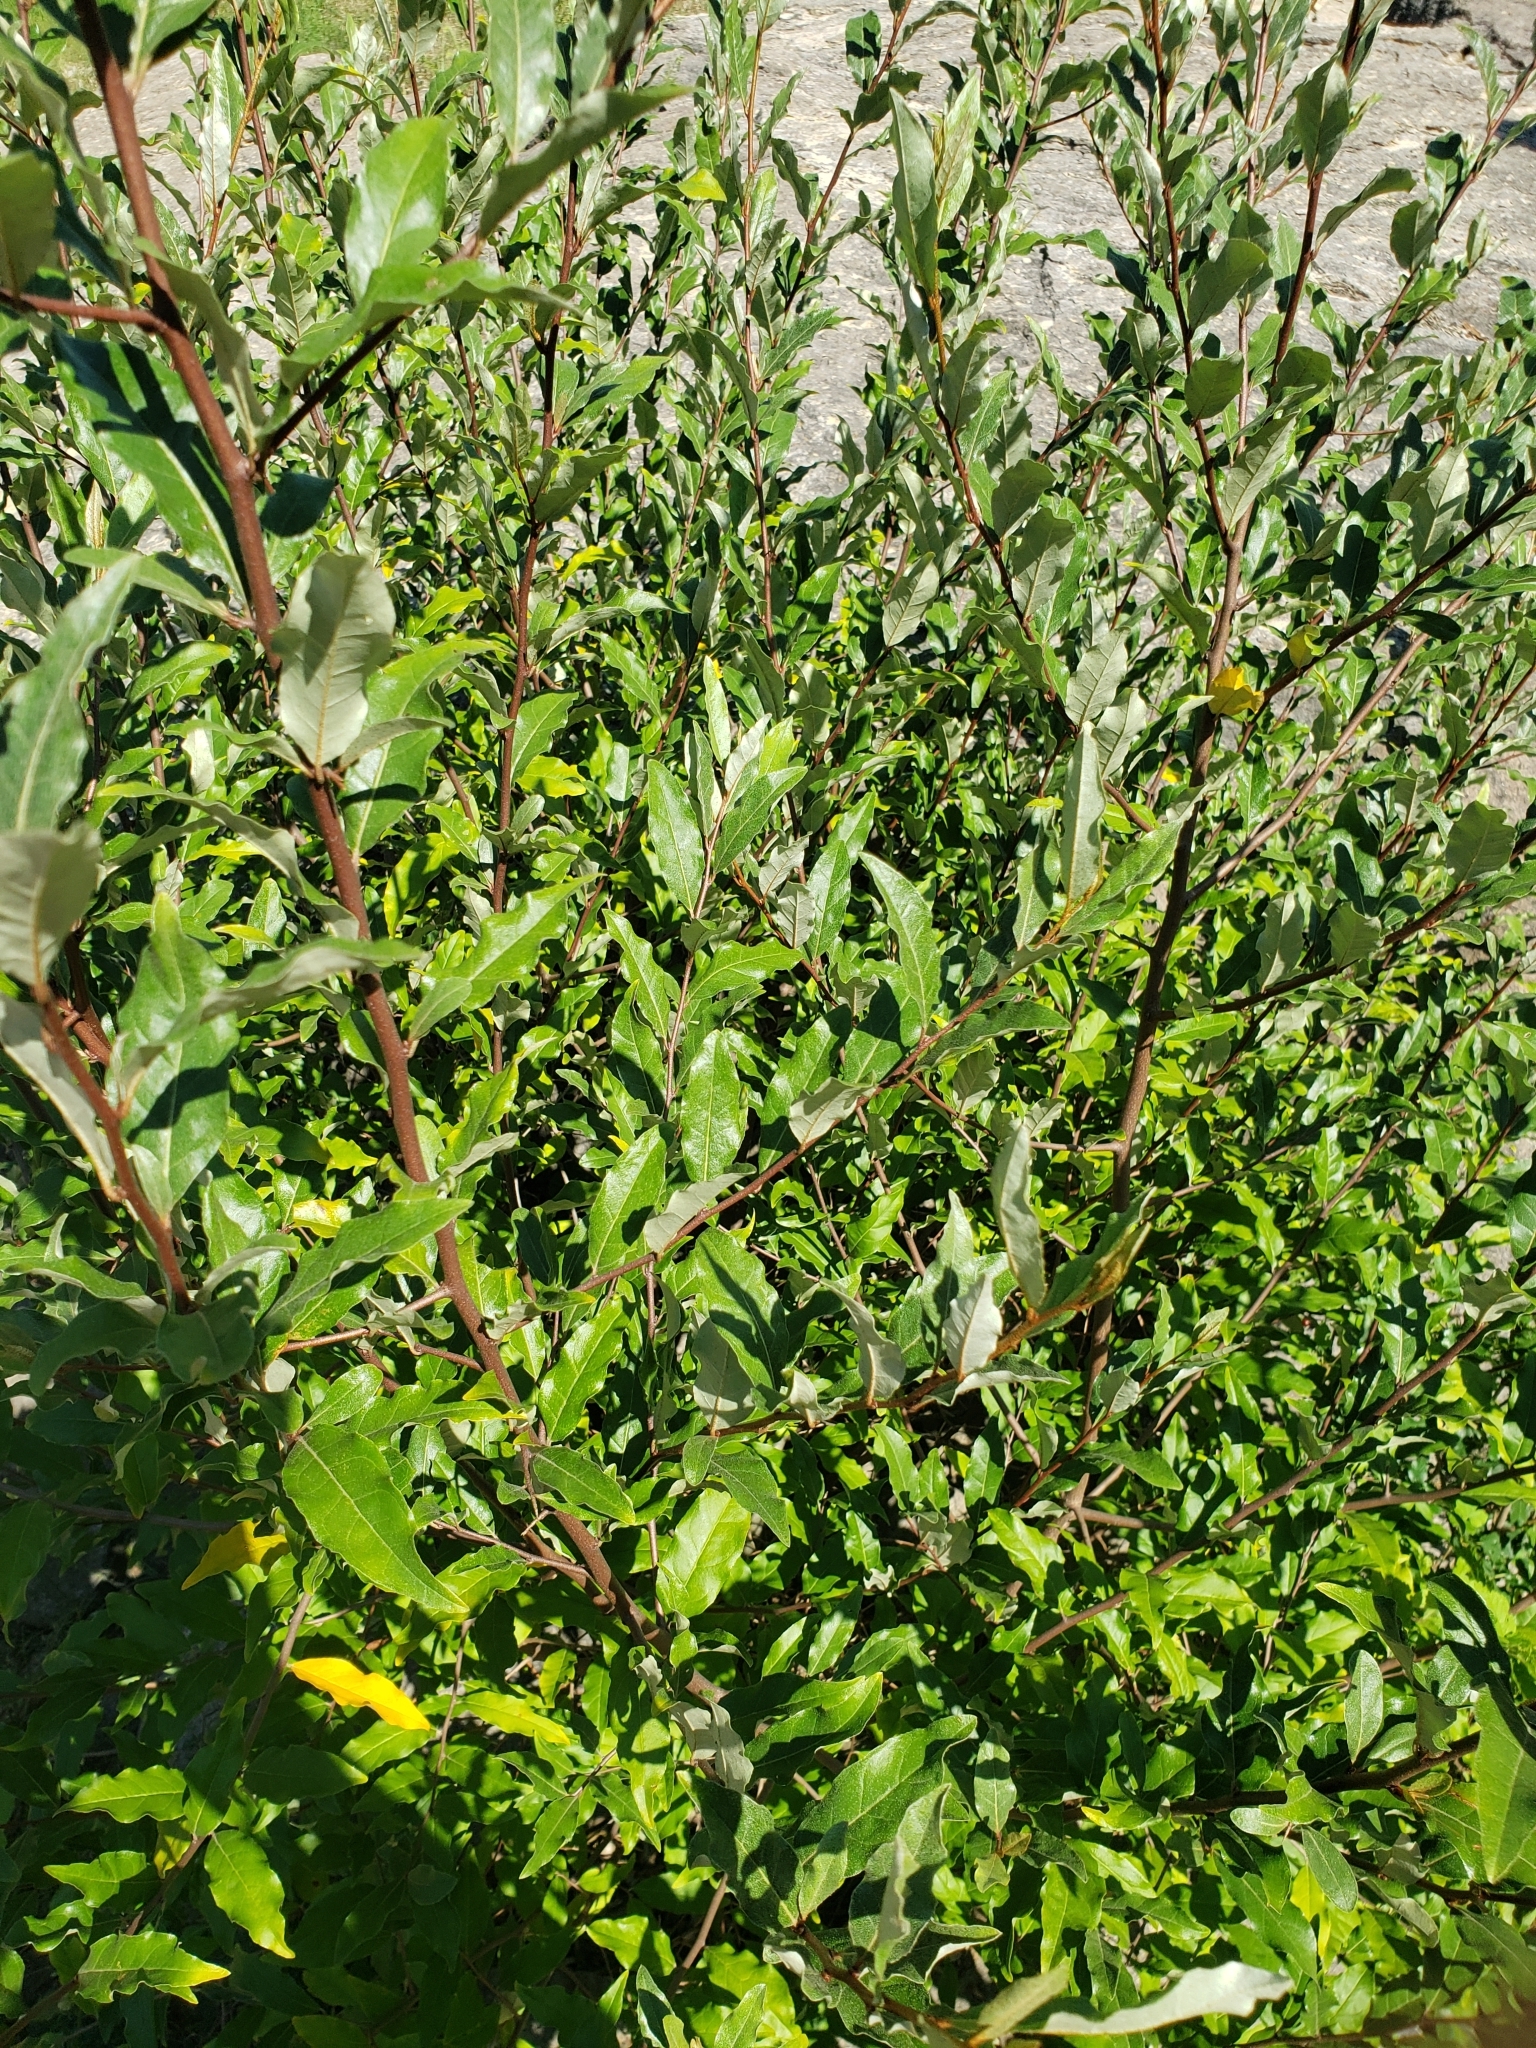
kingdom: Plantae
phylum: Tracheophyta
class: Magnoliopsida
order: Rosales
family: Elaeagnaceae
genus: Elaeagnus
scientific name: Elaeagnus umbellata
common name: Autumn olive
